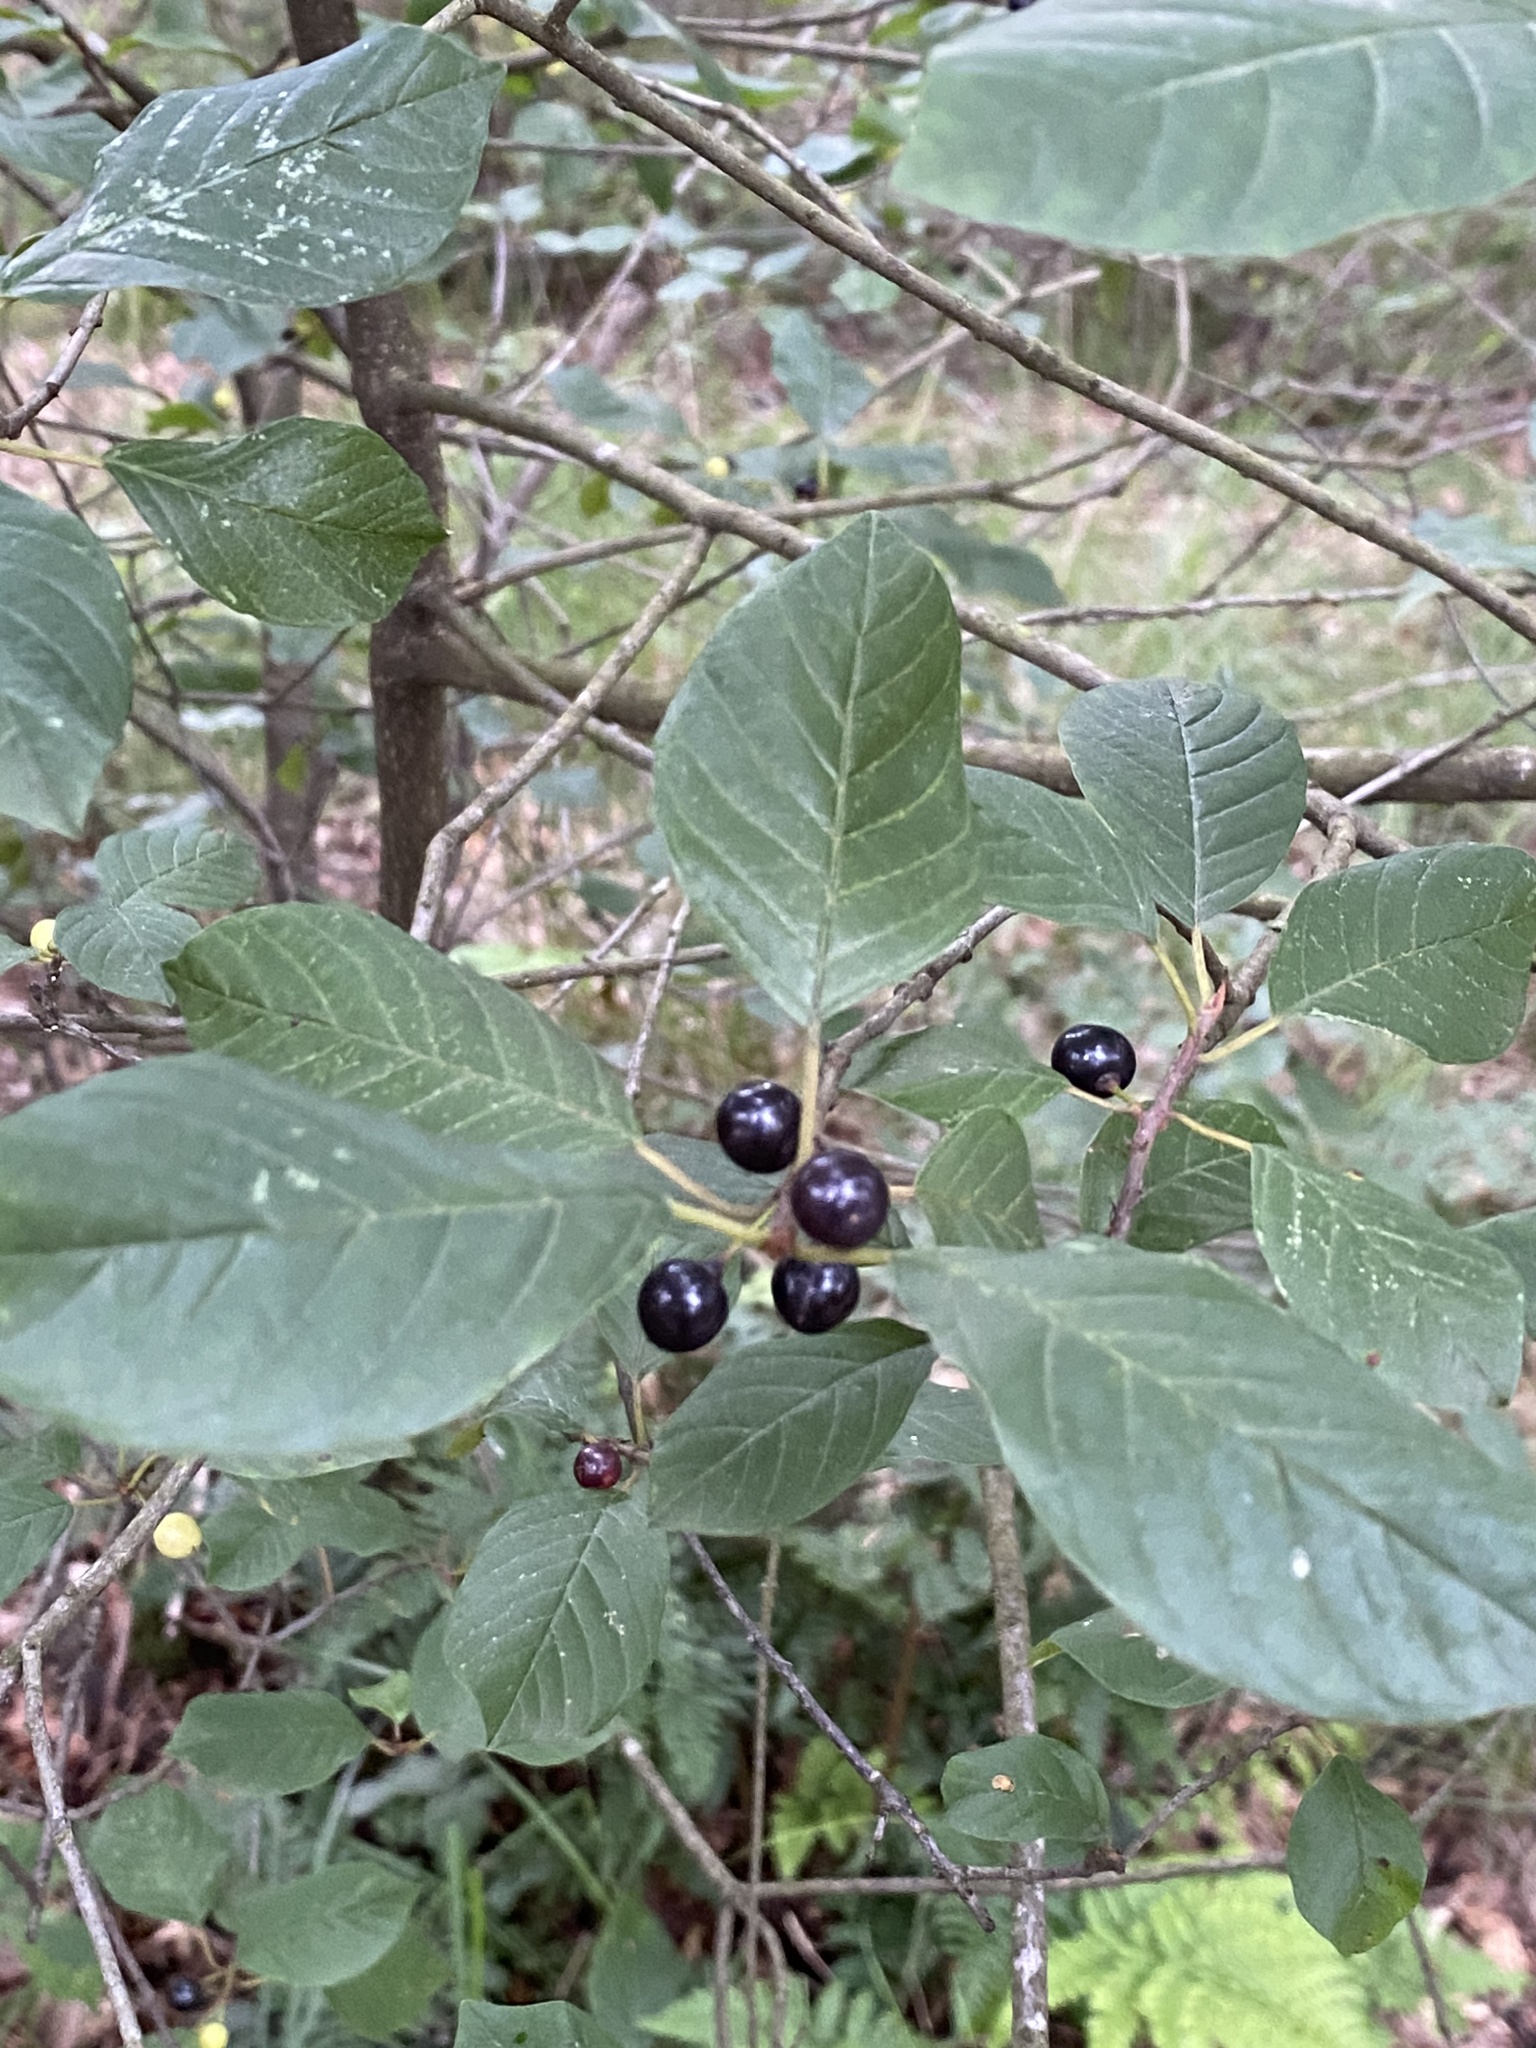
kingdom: Plantae
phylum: Tracheophyta
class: Magnoliopsida
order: Rosales
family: Rhamnaceae
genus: Frangula
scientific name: Frangula alnus
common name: Alder buckthorn
